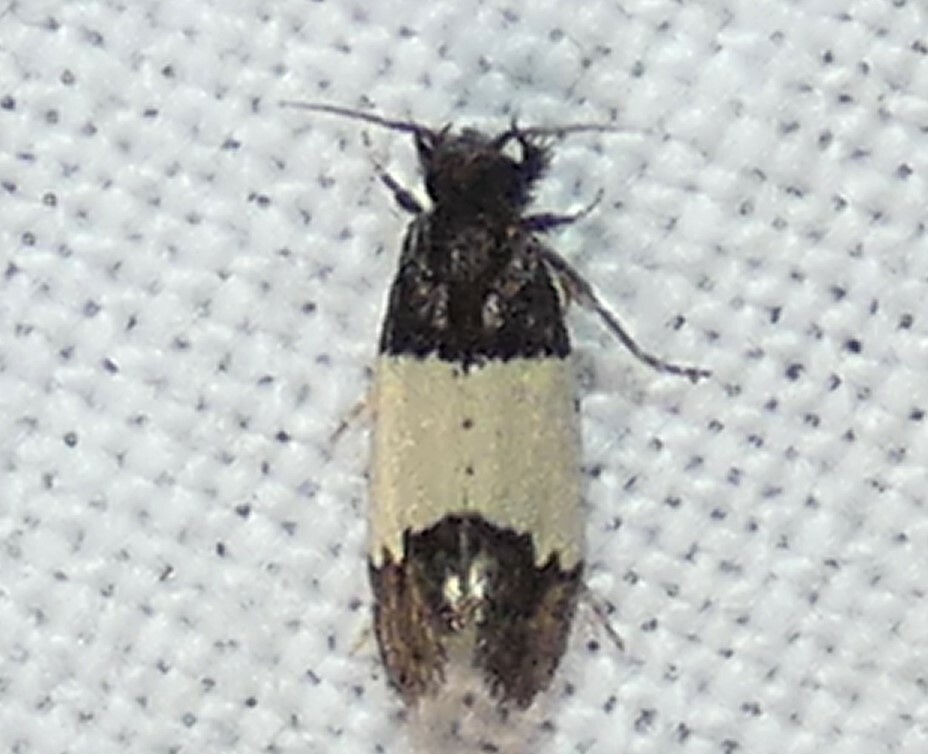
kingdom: Animalia
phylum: Arthropoda
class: Insecta
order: Lepidoptera
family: Psychidae
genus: Kearfottia
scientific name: Kearfottia albifasciella
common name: White-patched kearfottia
